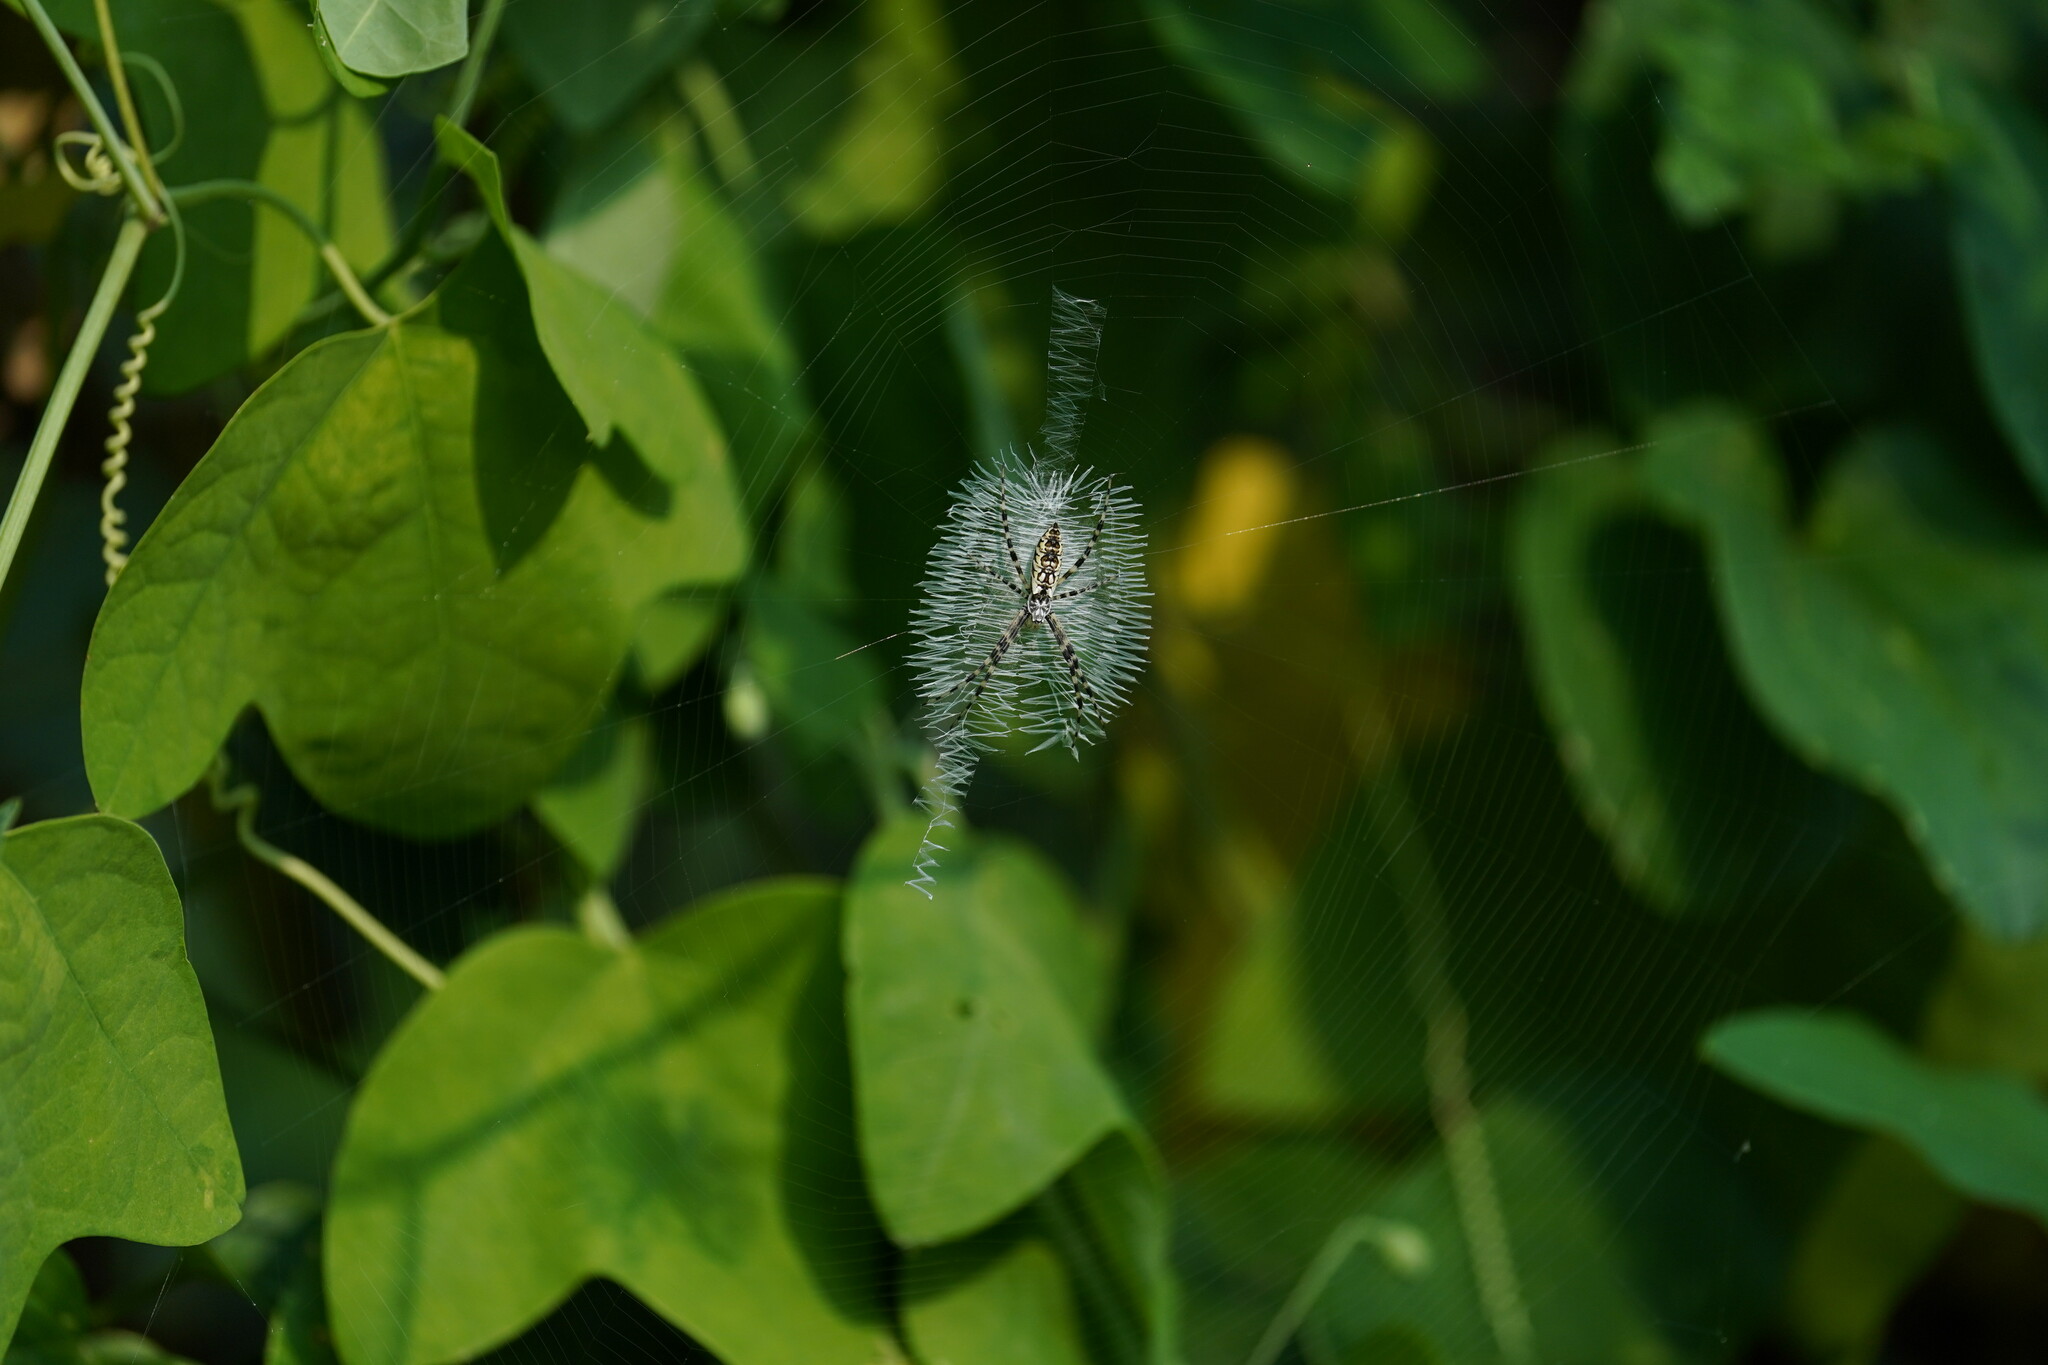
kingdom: Animalia
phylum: Arthropoda
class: Arachnida
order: Araneae
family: Araneidae
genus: Argiope
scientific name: Argiope aurantia
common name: Orb weavers
